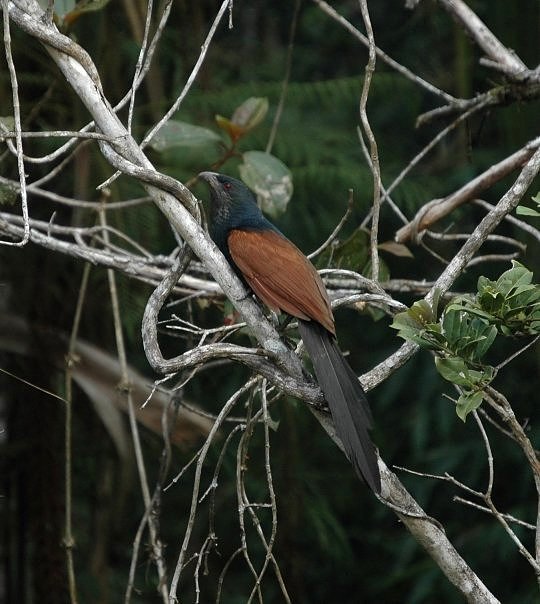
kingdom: Animalia
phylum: Chordata
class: Aves
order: Cuculiformes
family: Cuculidae
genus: Centropus
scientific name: Centropus toulou
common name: Malagasy coucal
